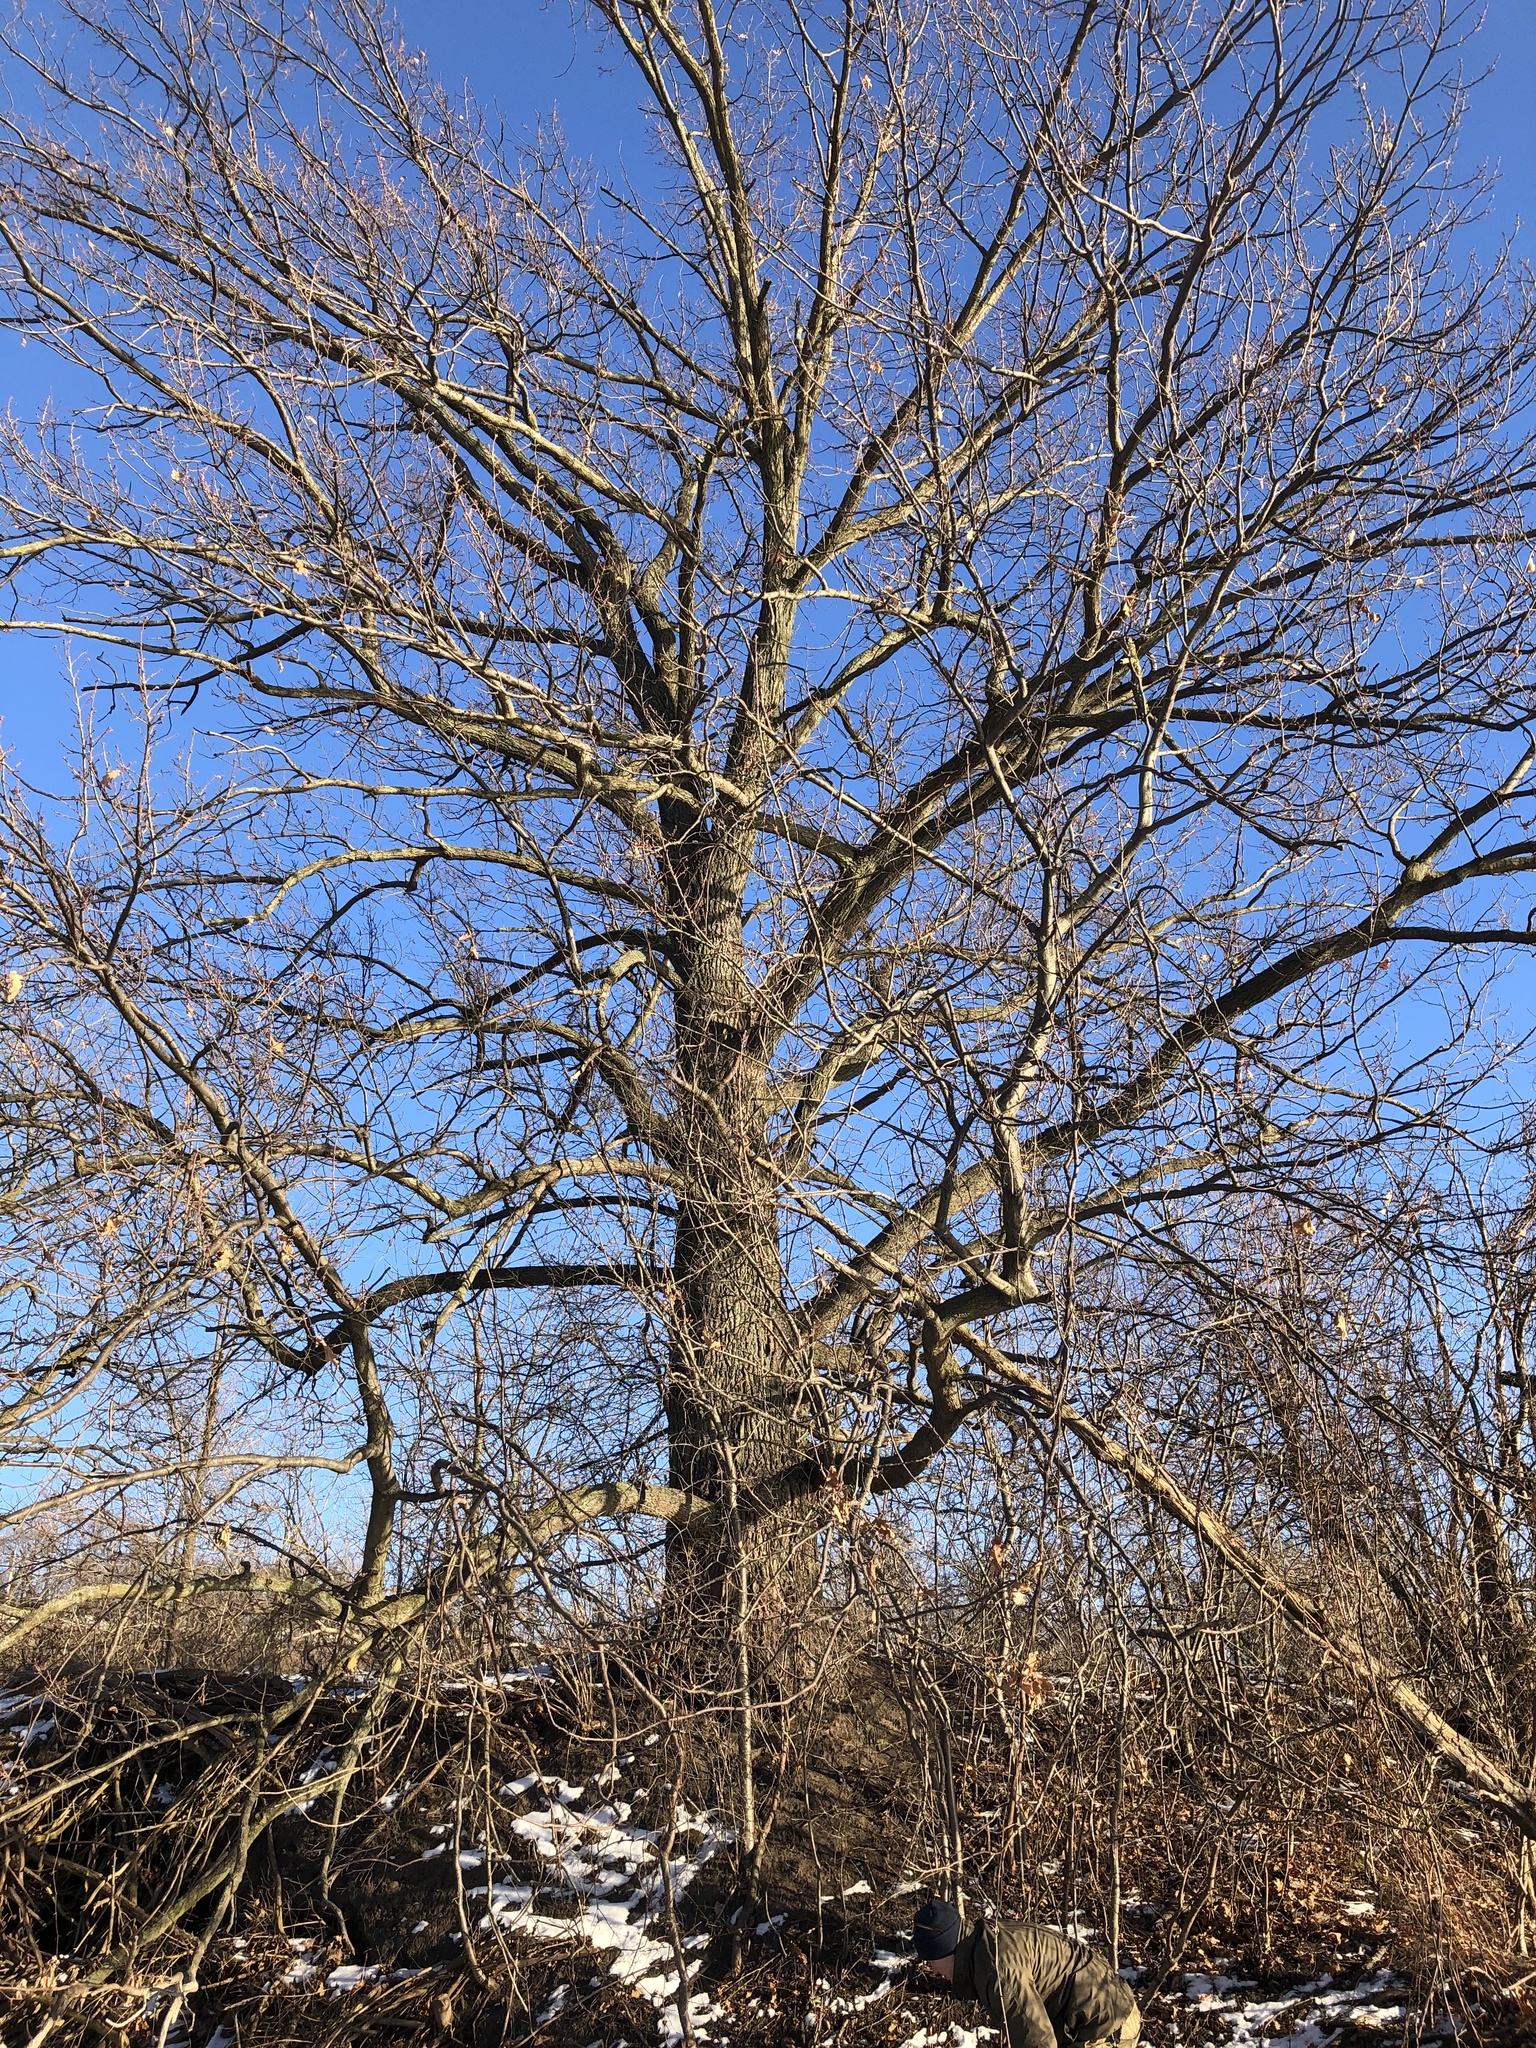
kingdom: Plantae
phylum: Tracheophyta
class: Magnoliopsida
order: Fagales
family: Fagaceae
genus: Quercus
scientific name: Quercus robur
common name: Pedunculate oak
